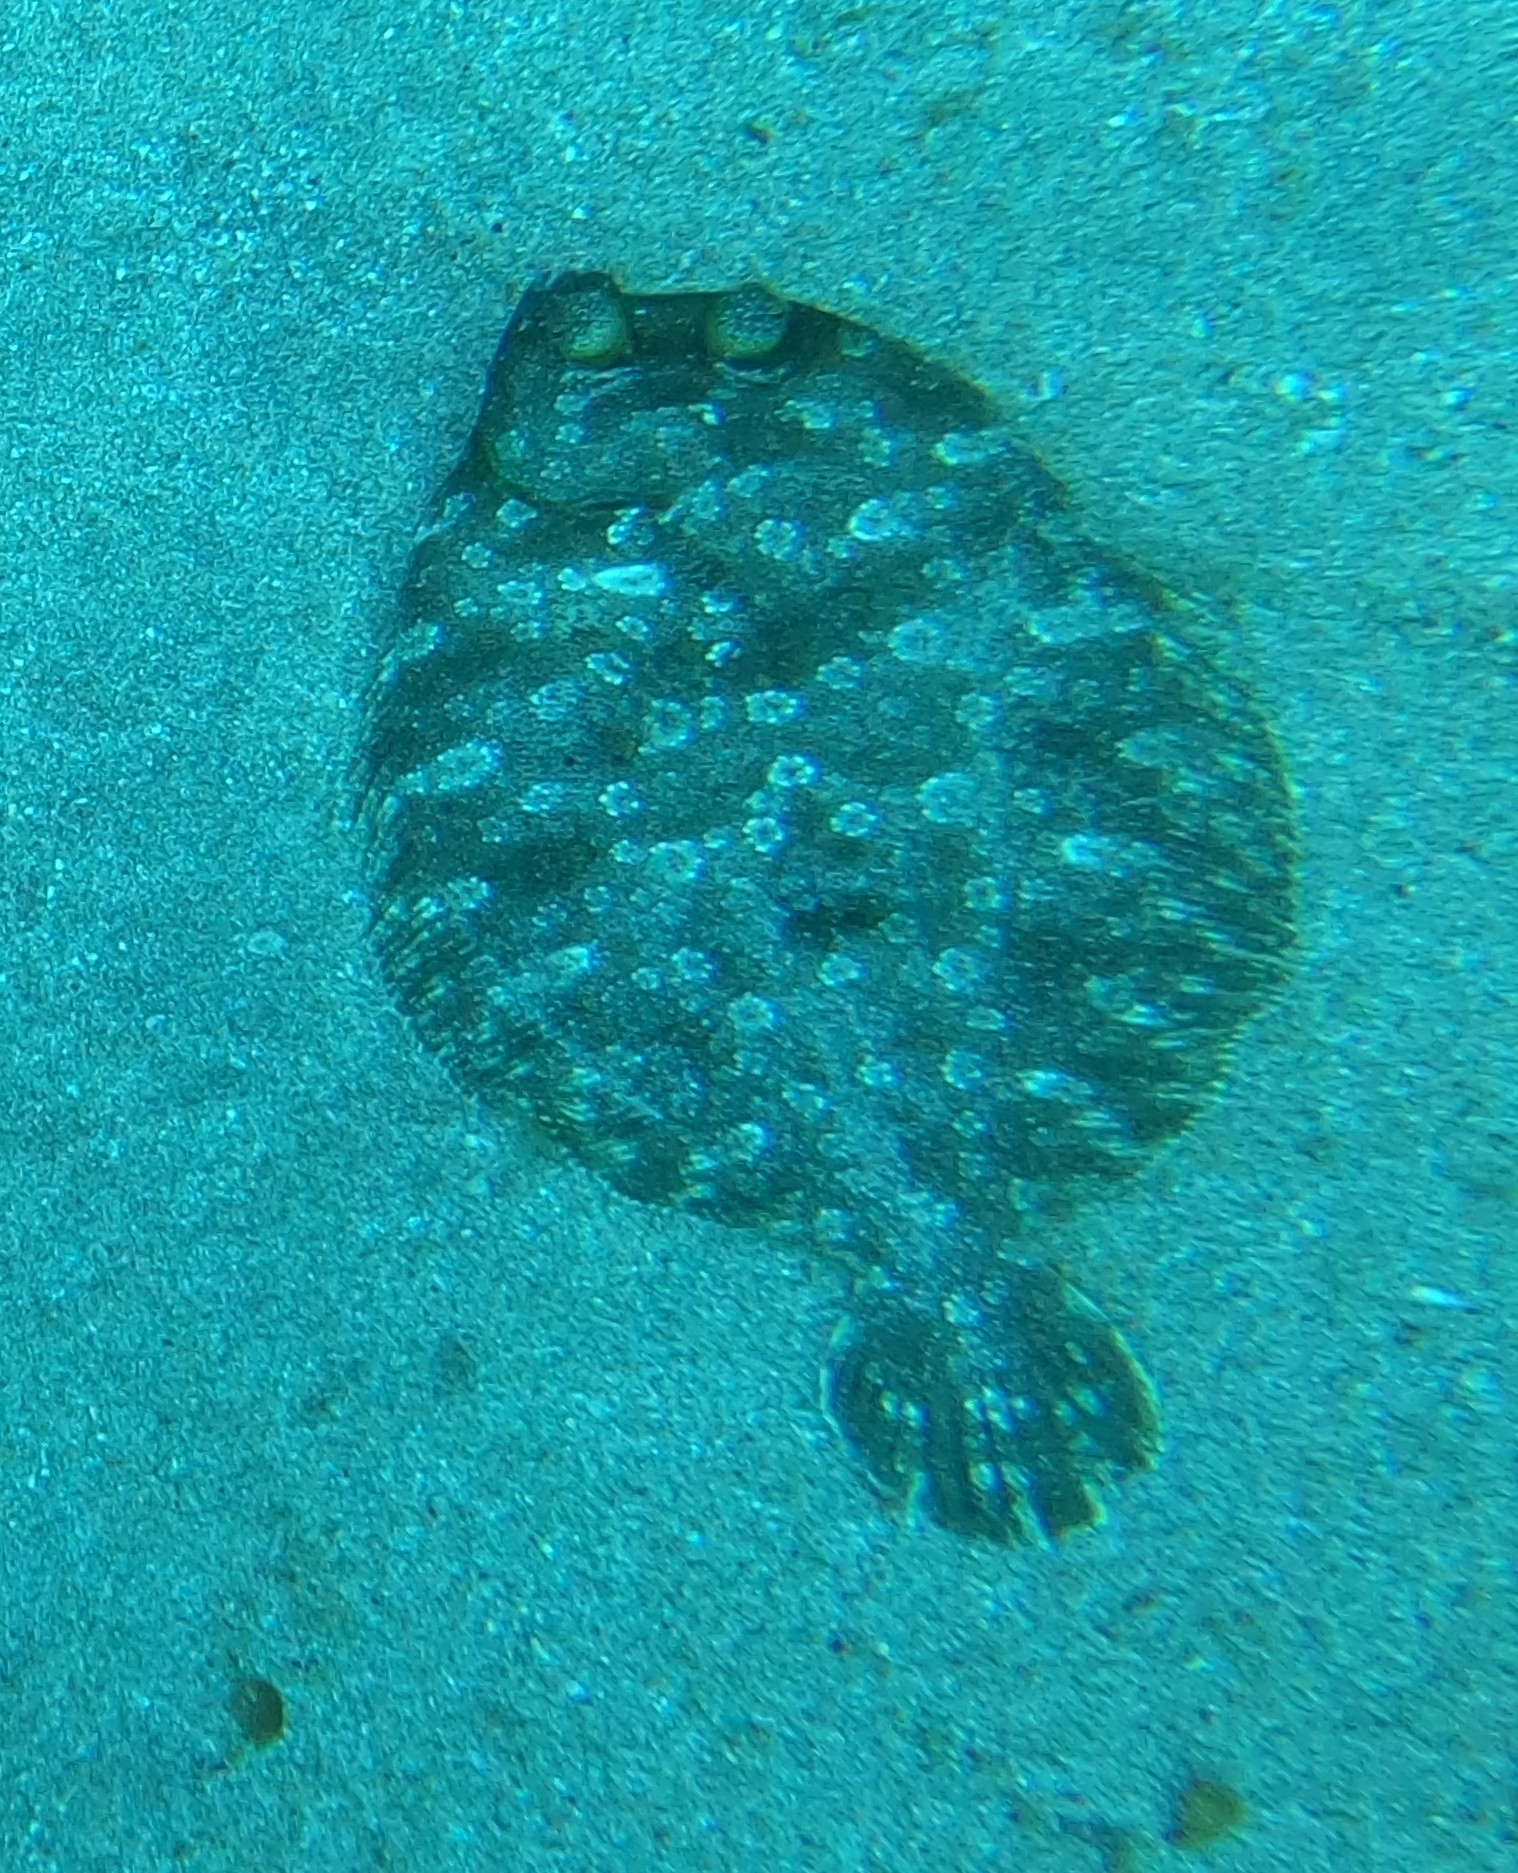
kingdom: Animalia
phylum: Chordata
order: Pleuronectiformes
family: Bothidae
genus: Bothus
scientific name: Bothus podas
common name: Wide-eyed flounder
